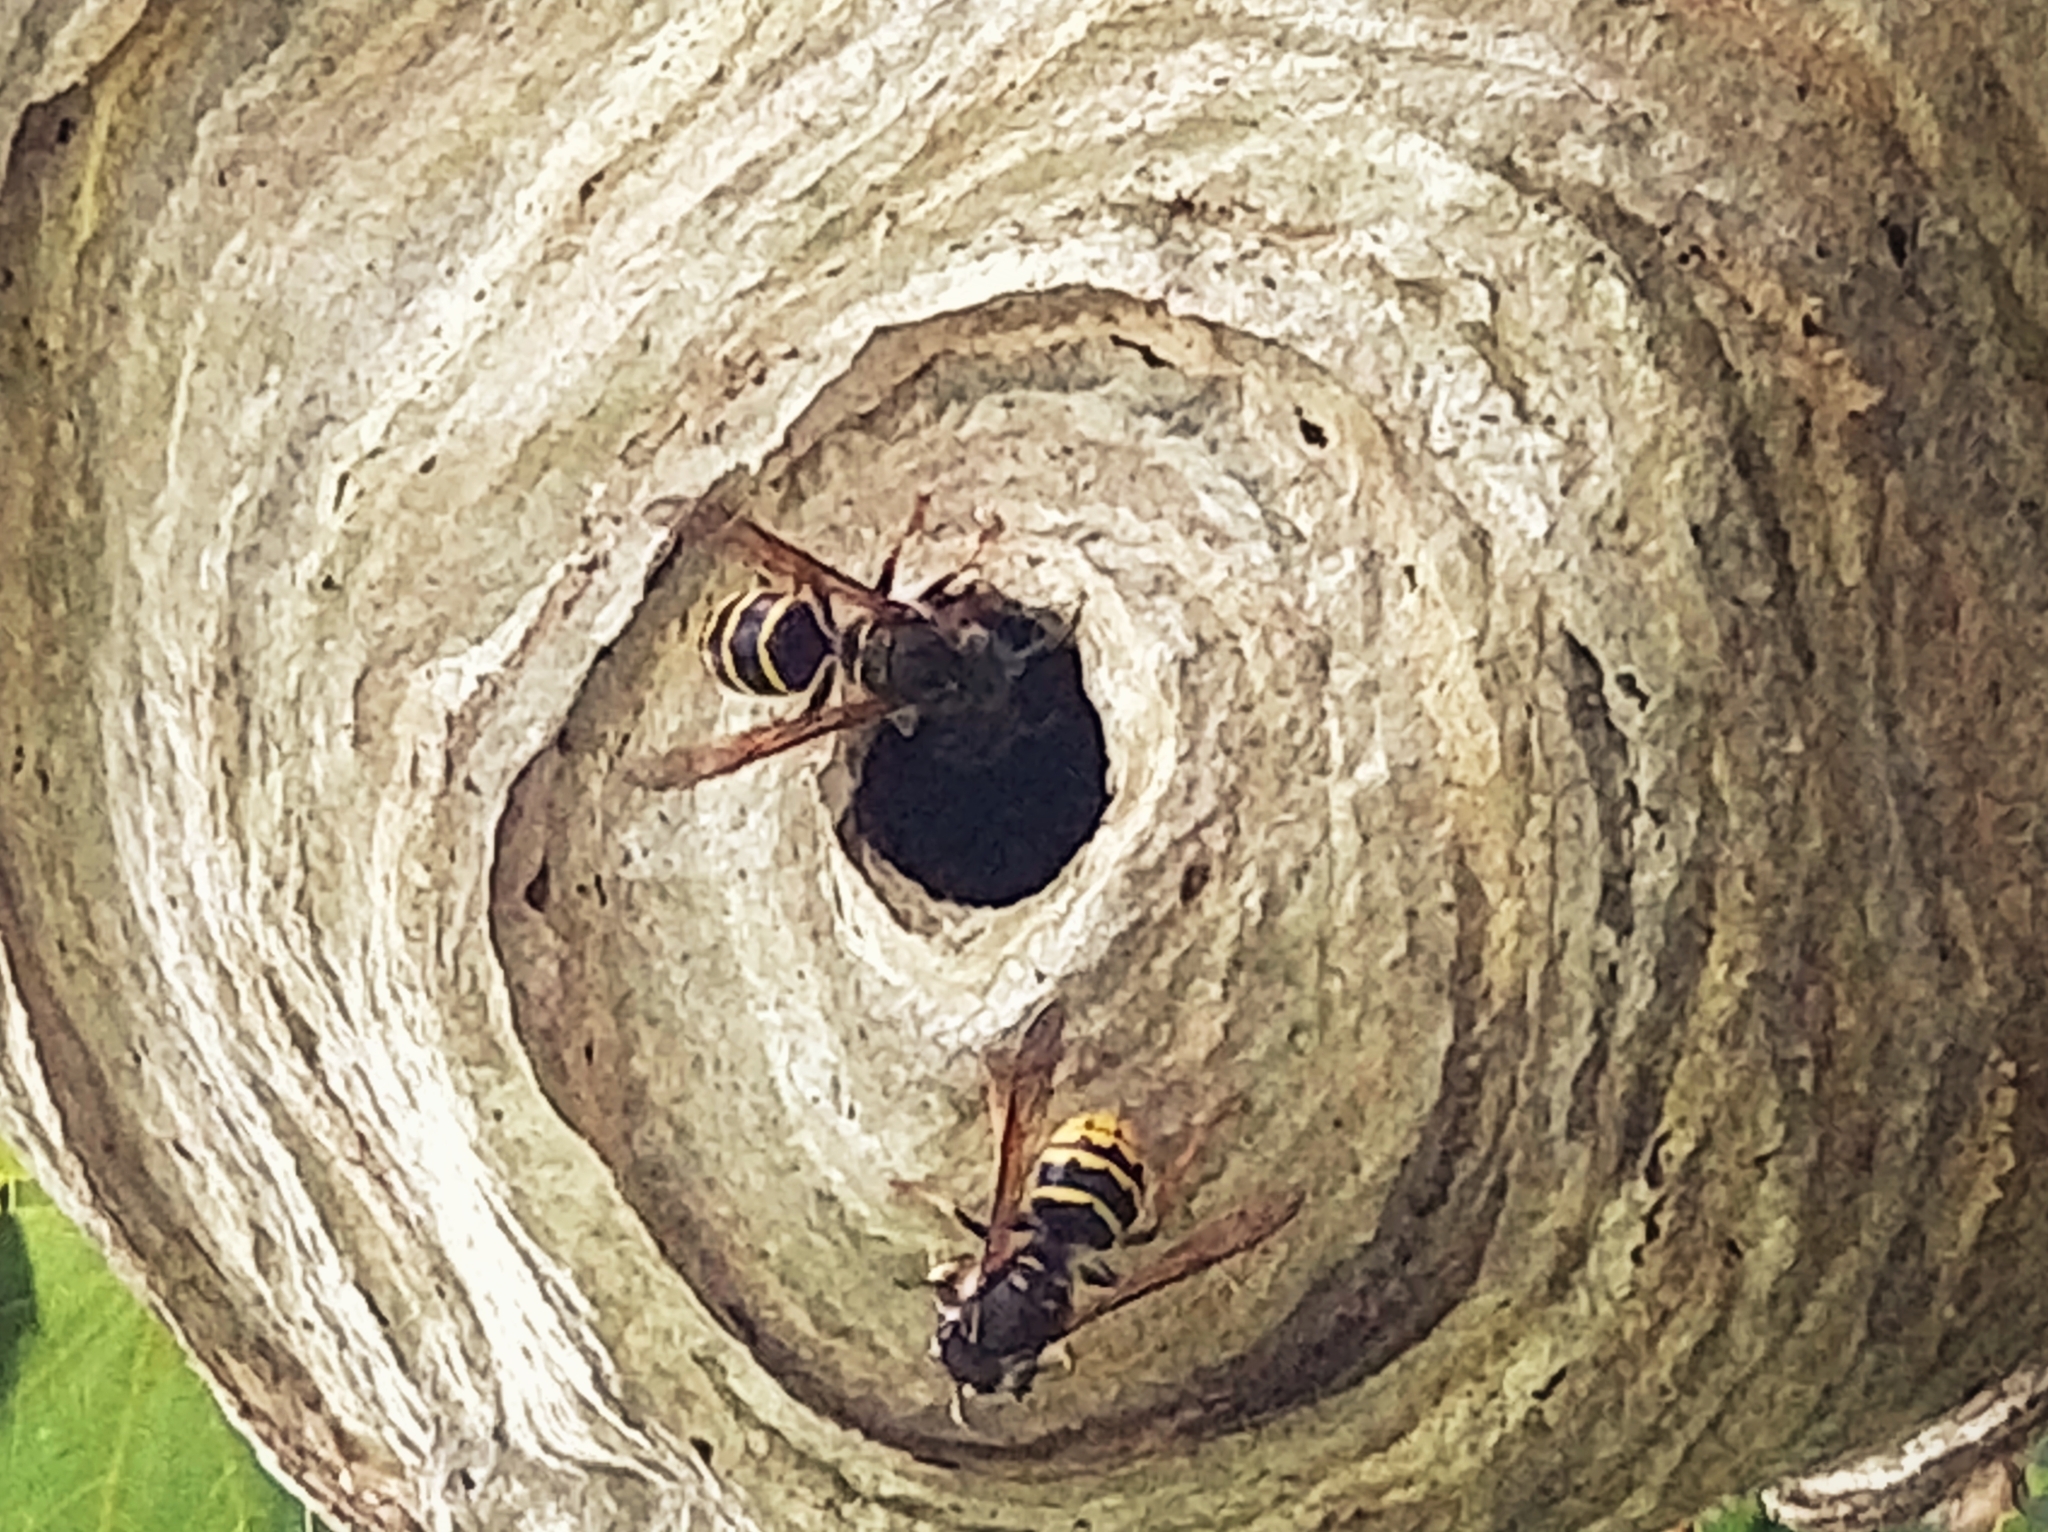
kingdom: Animalia
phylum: Arthropoda
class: Insecta
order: Hymenoptera
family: Vespidae
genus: Dolichovespula
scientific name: Dolichovespula media
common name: Median wasp
